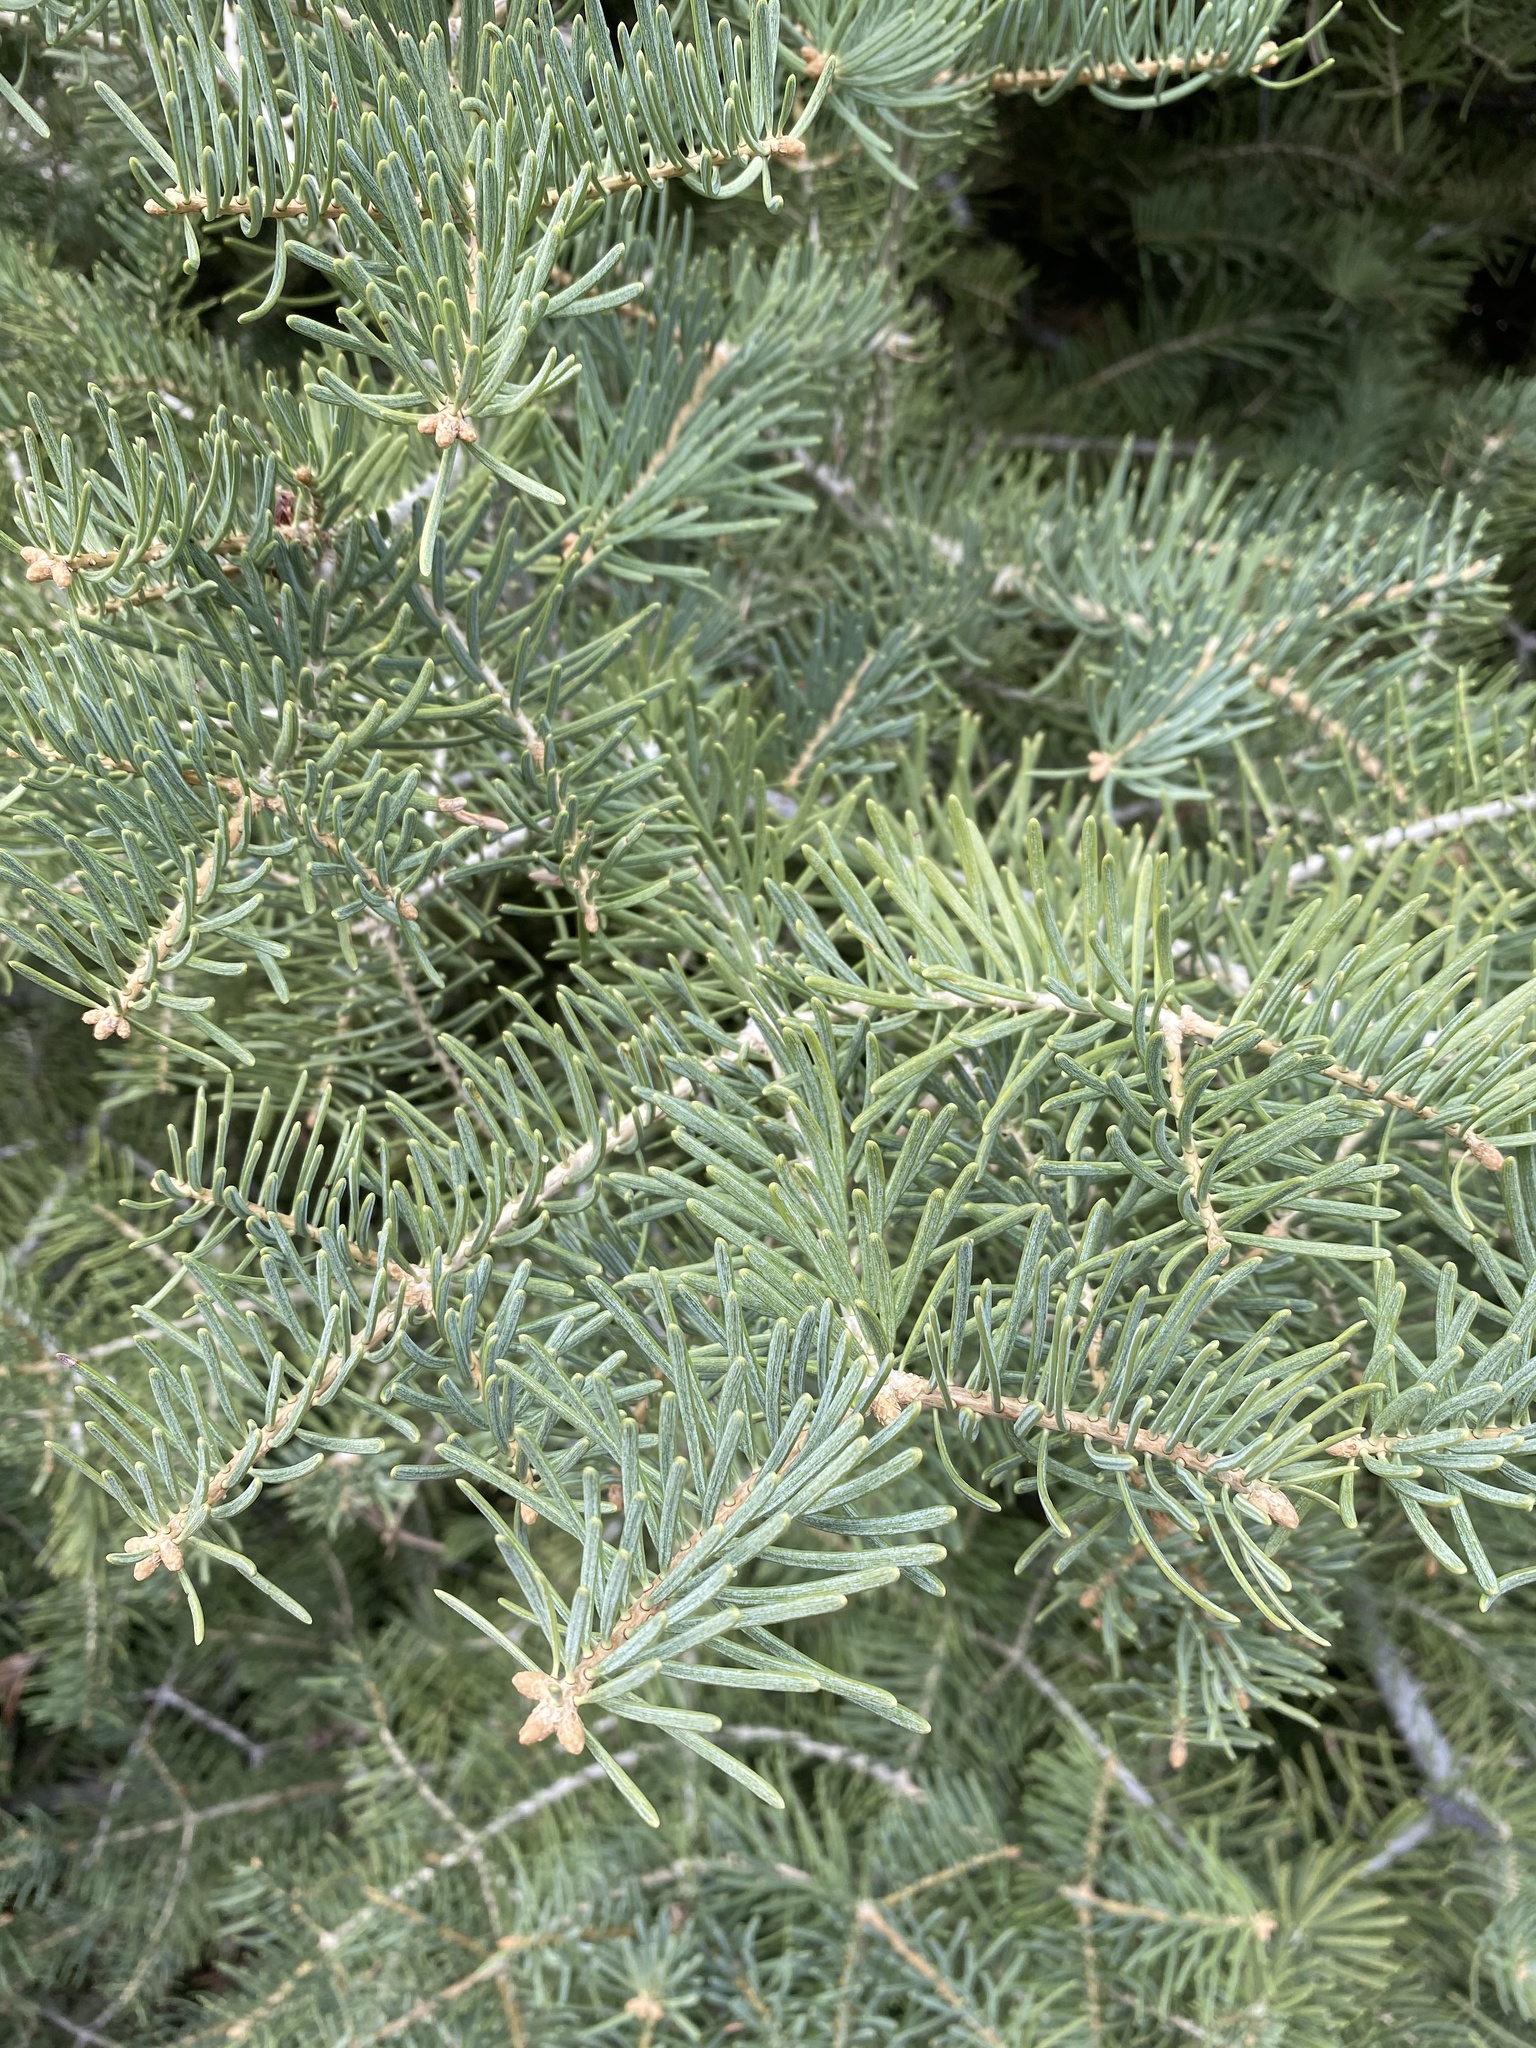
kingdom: Plantae
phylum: Tracheophyta
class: Pinopsida
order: Pinales
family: Pinaceae
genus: Abies
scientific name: Abies concolor
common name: Colorado fir
